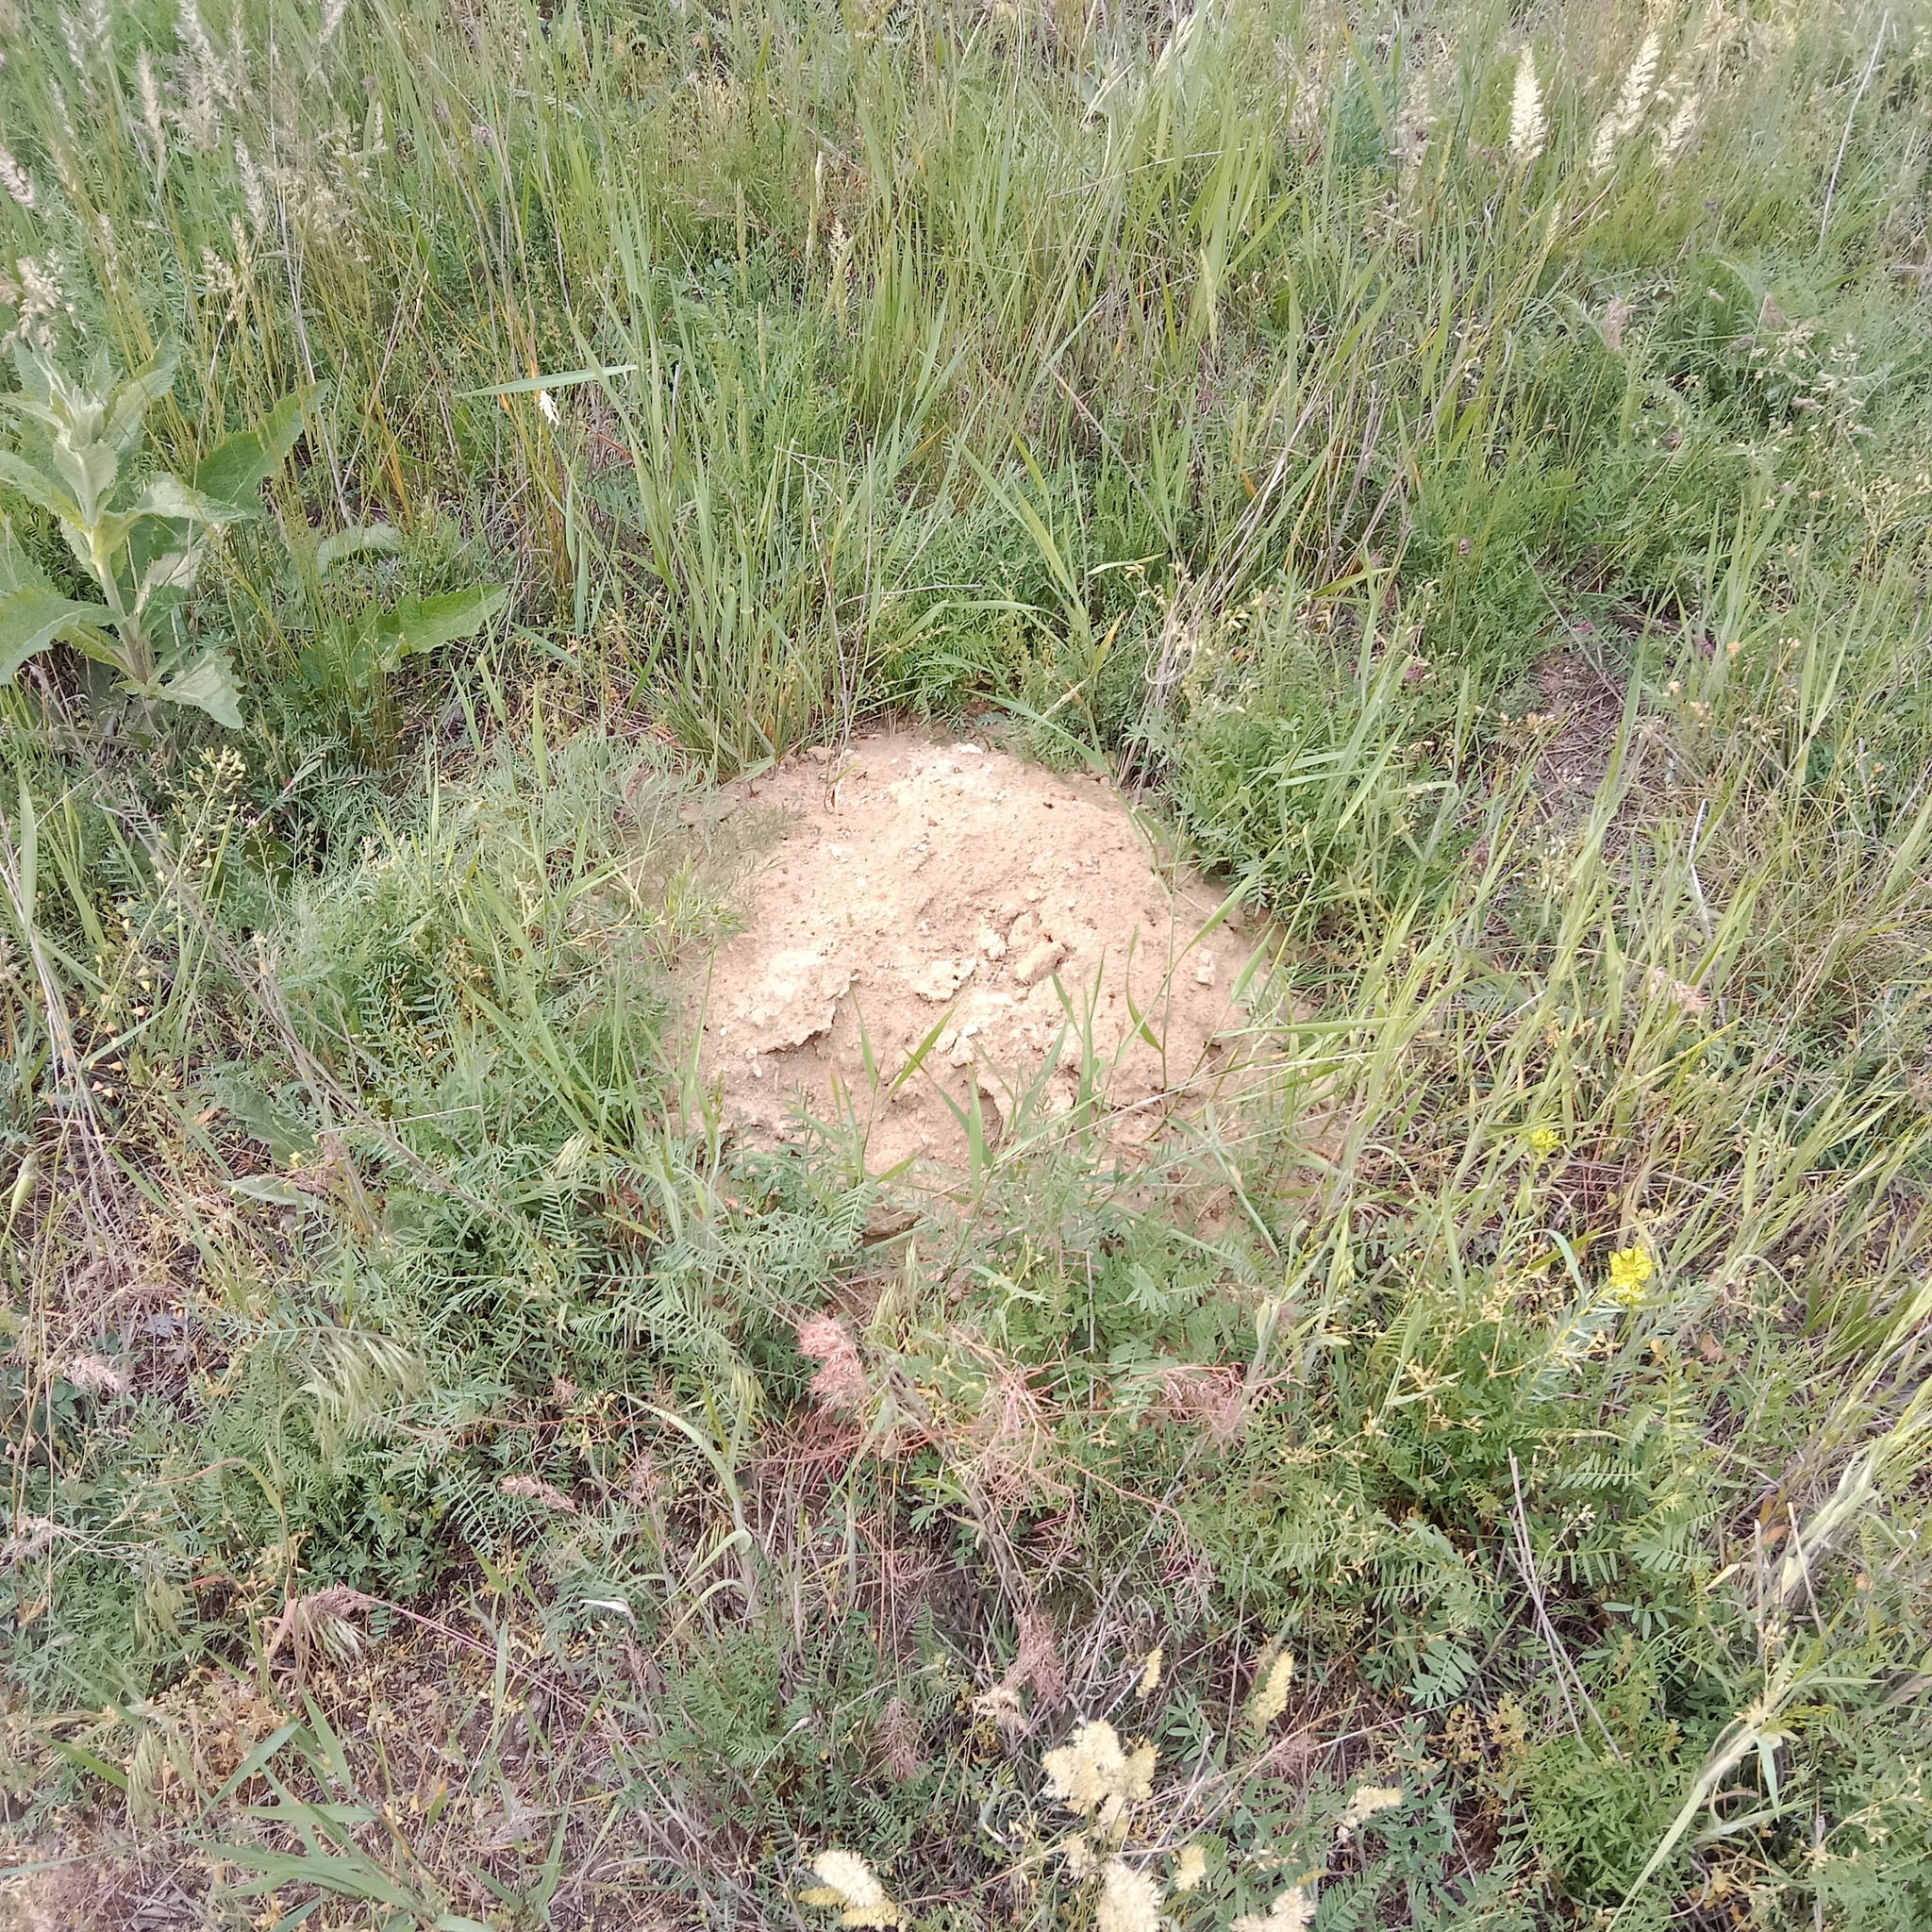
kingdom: Animalia
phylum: Chordata
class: Mammalia
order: Rodentia
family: Spalacidae
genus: Spalax
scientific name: Spalax leucodon
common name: Lesser blind mole rat
